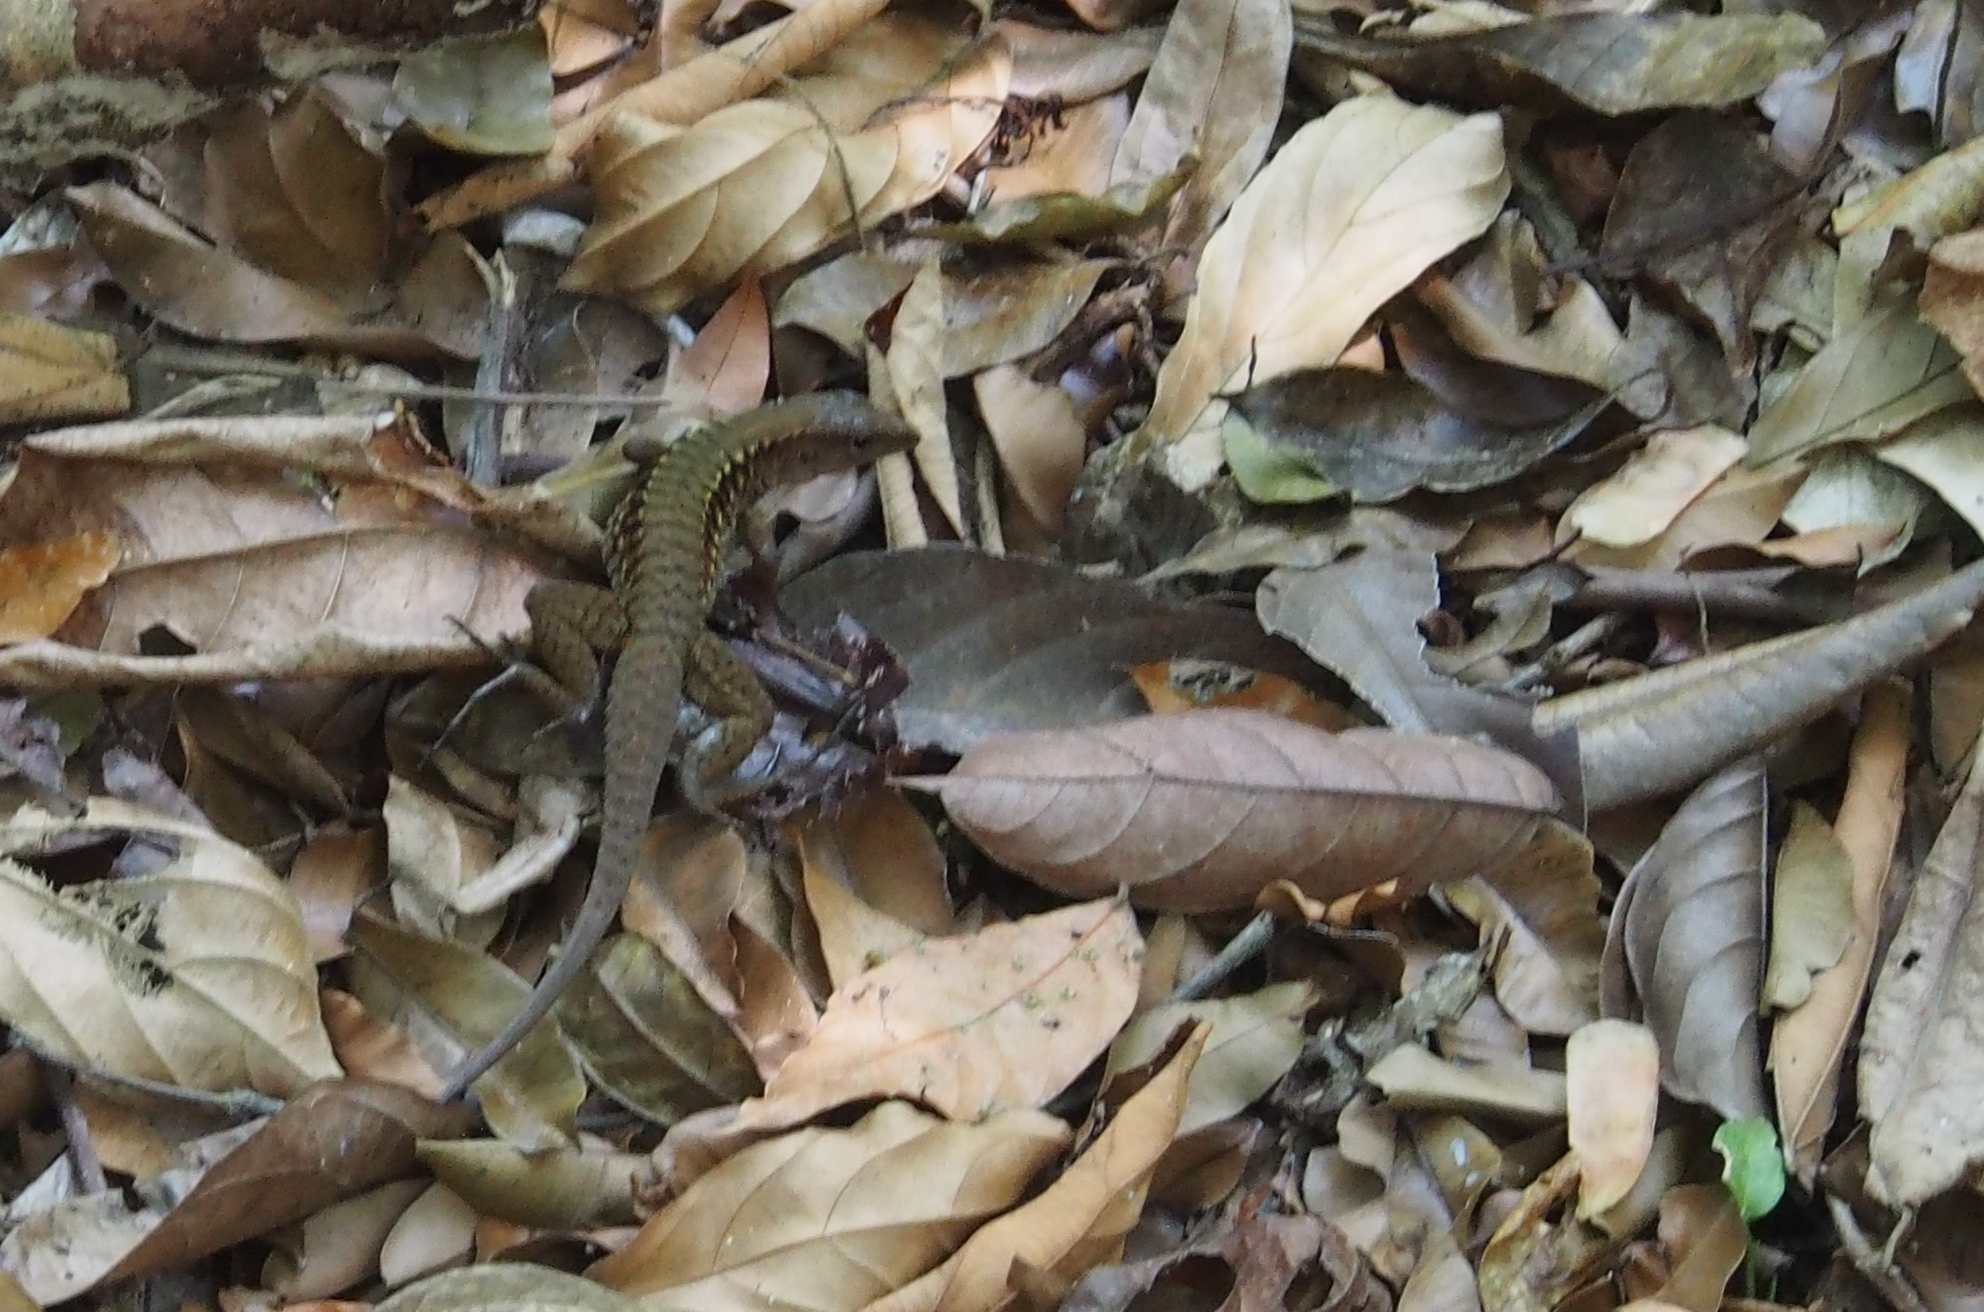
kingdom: Animalia
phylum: Chordata
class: Squamata
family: Teiidae
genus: Holcosus
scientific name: Holcosus leptophrys
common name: Delicate ameiva
